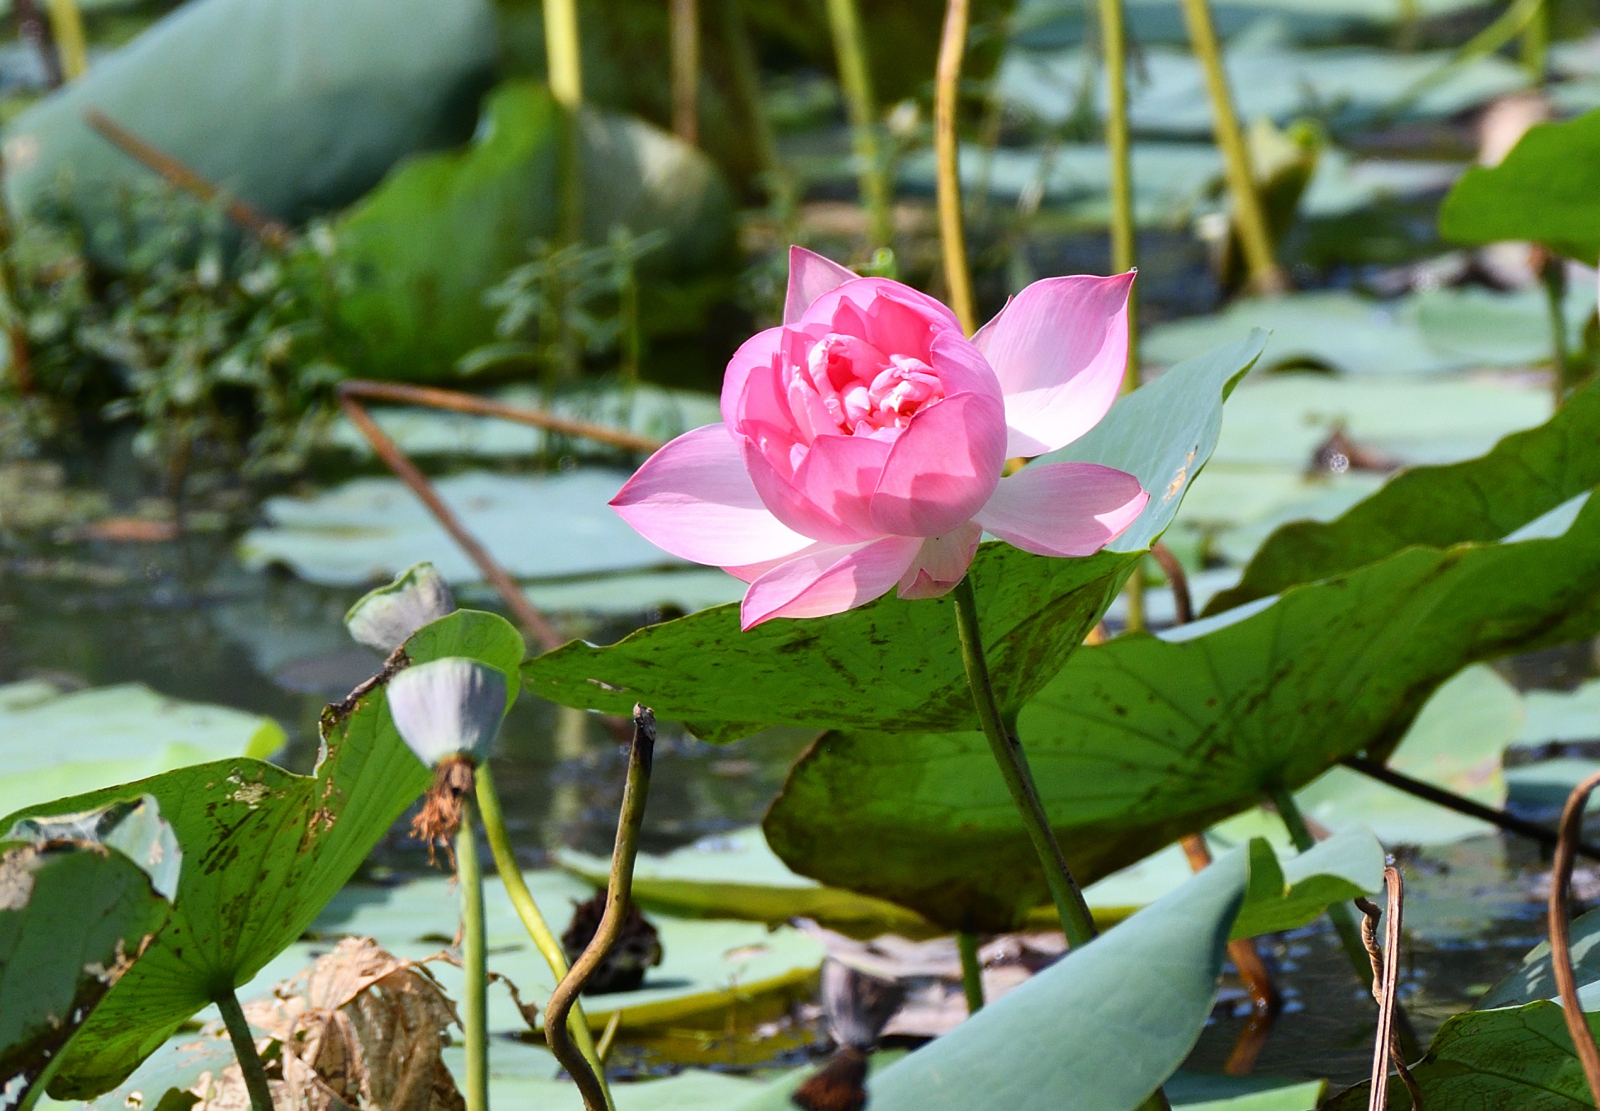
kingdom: Plantae
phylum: Tracheophyta
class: Magnoliopsida
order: Proteales
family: Nelumbonaceae
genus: Nelumbo
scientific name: Nelumbo nucifera
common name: Sacred lotus
